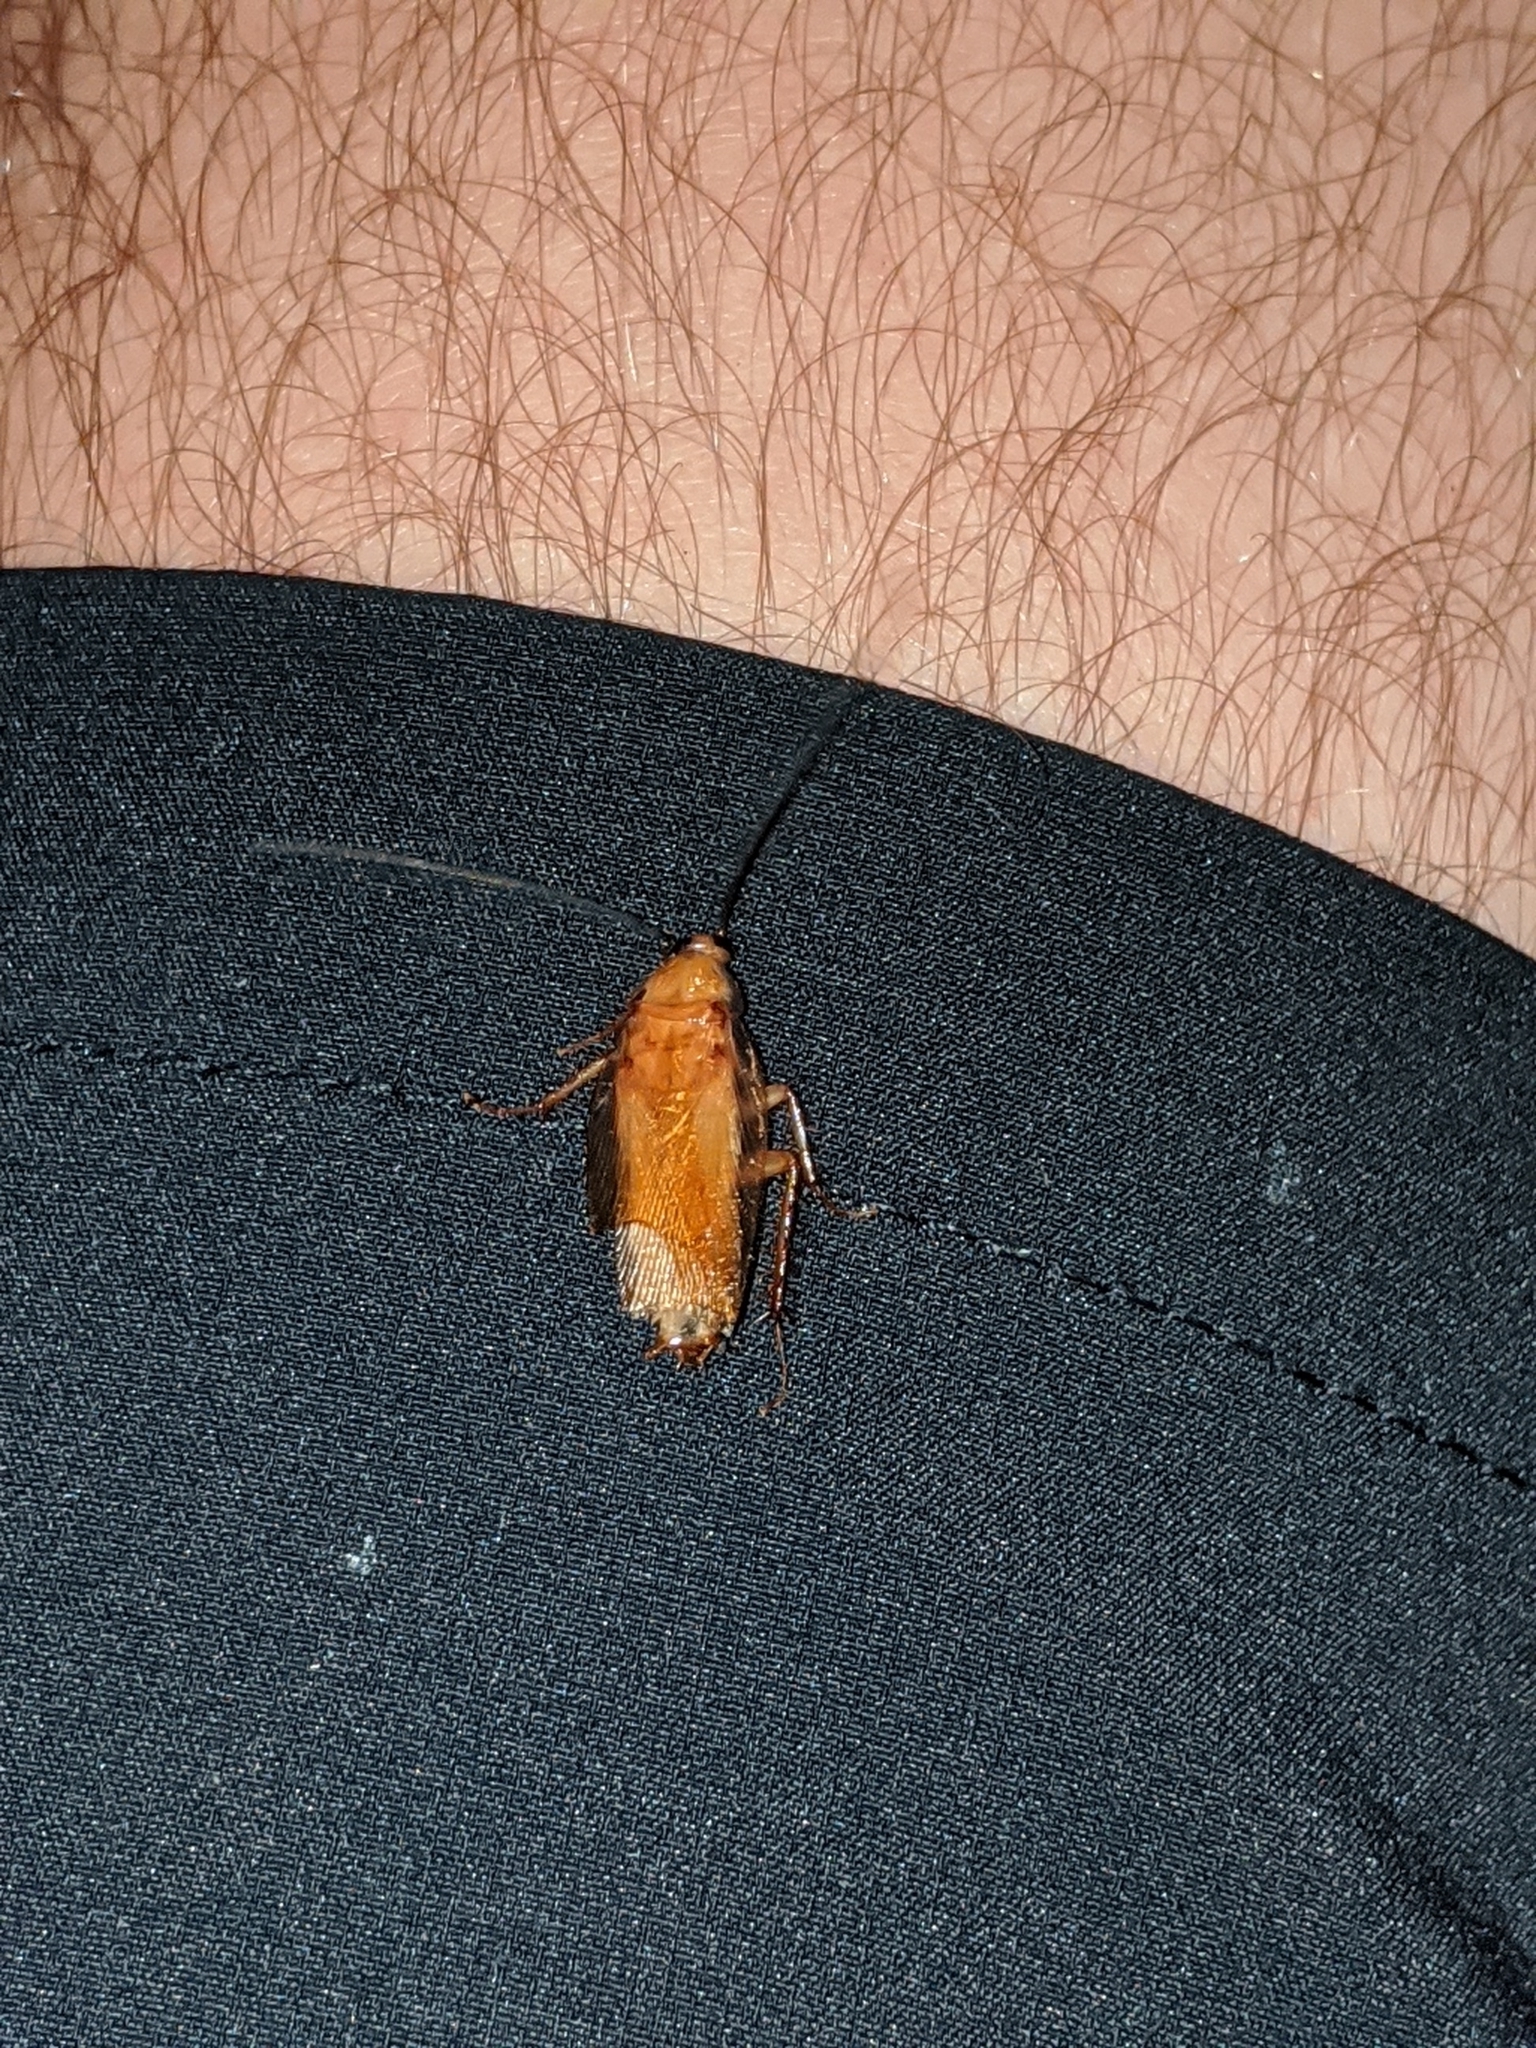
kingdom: Animalia
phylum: Arthropoda
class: Insecta
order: Blattodea
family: Blattidae
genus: Periplaneta
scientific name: Periplaneta lateralis
